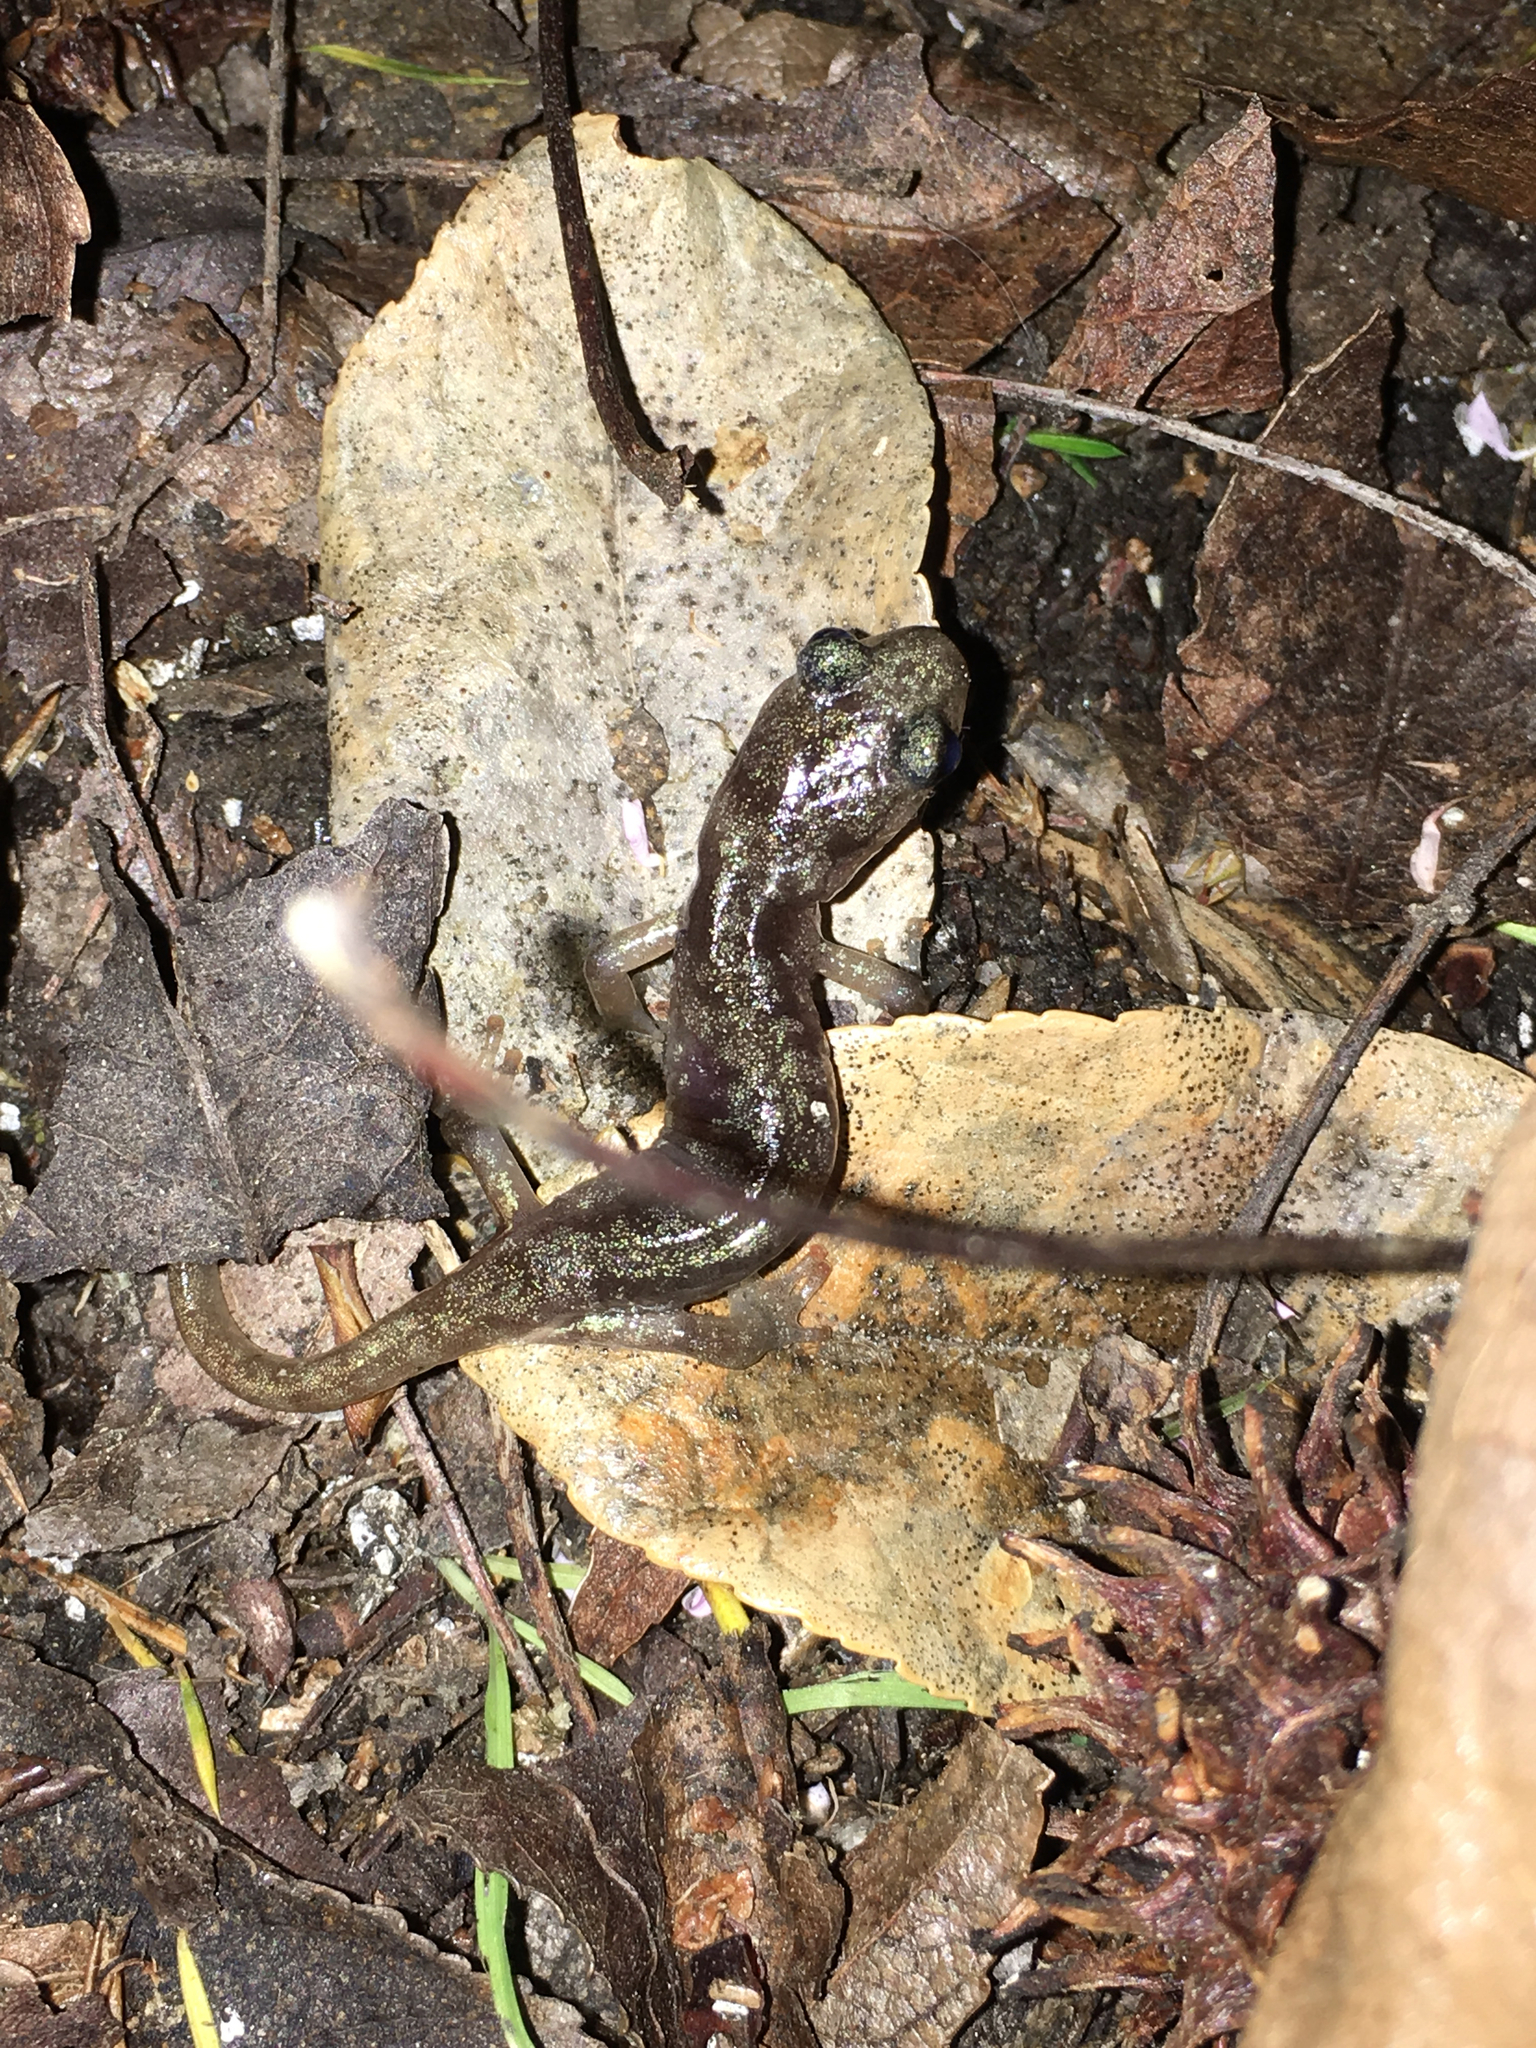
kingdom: Animalia
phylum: Chordata
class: Amphibia
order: Caudata
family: Plethodontidae
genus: Aneides
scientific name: Aneides lugubris
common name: Arboreal salamander
